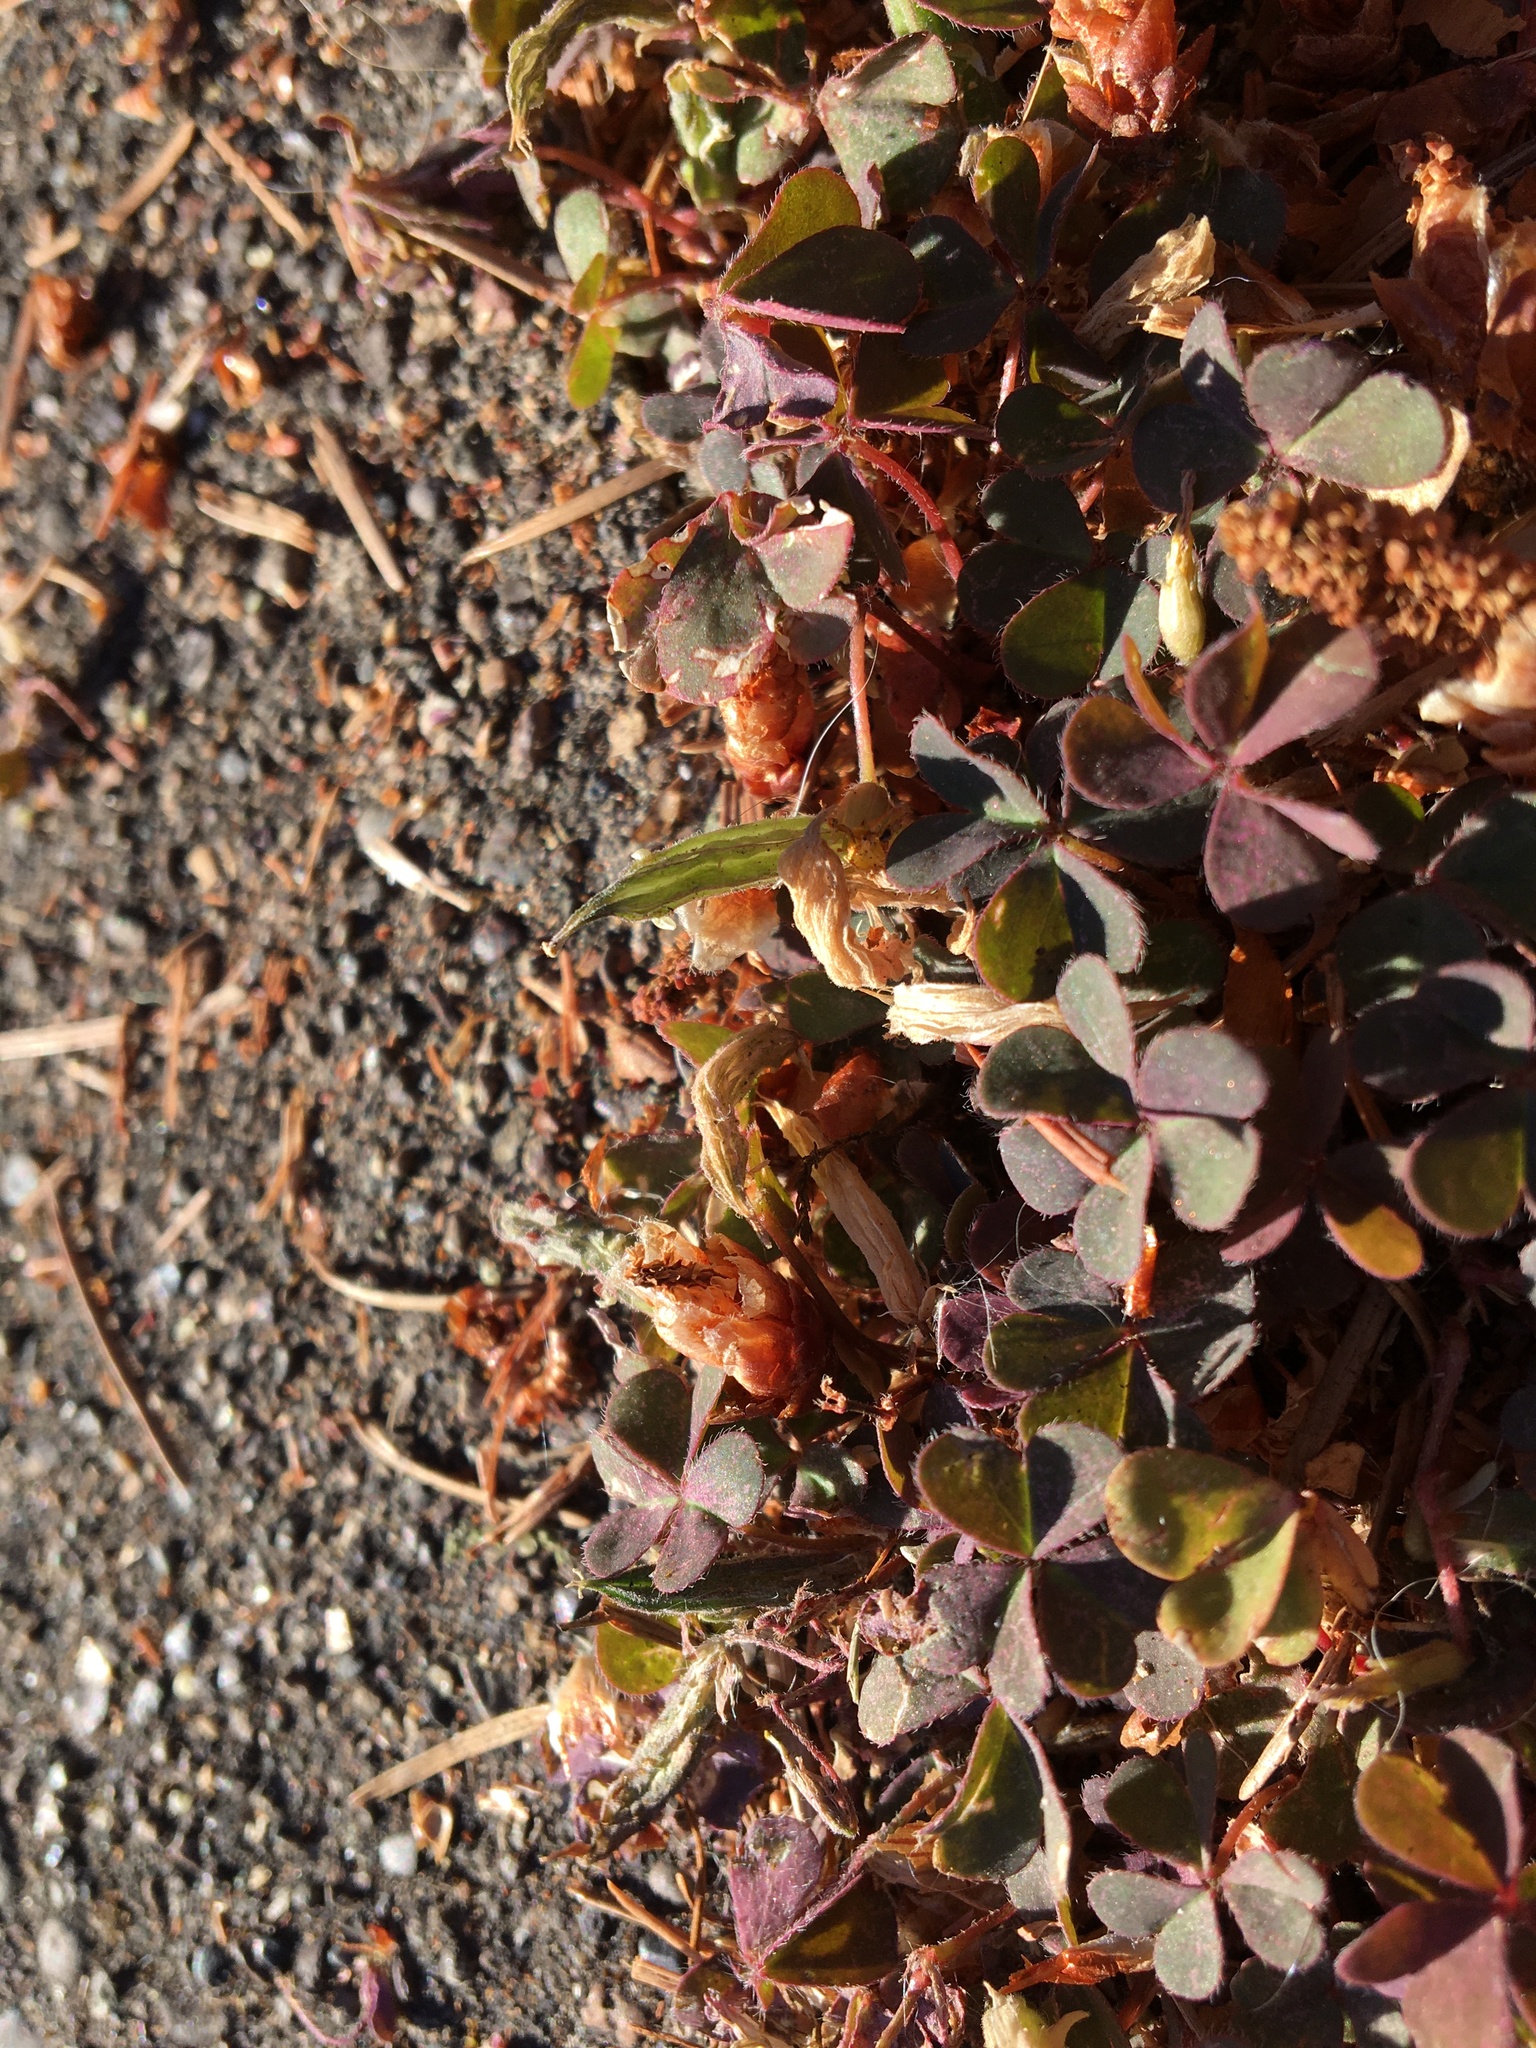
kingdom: Plantae
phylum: Tracheophyta
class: Magnoliopsida
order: Oxalidales
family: Oxalidaceae
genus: Oxalis
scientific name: Oxalis corniculata
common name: Procumbent yellow-sorrel
